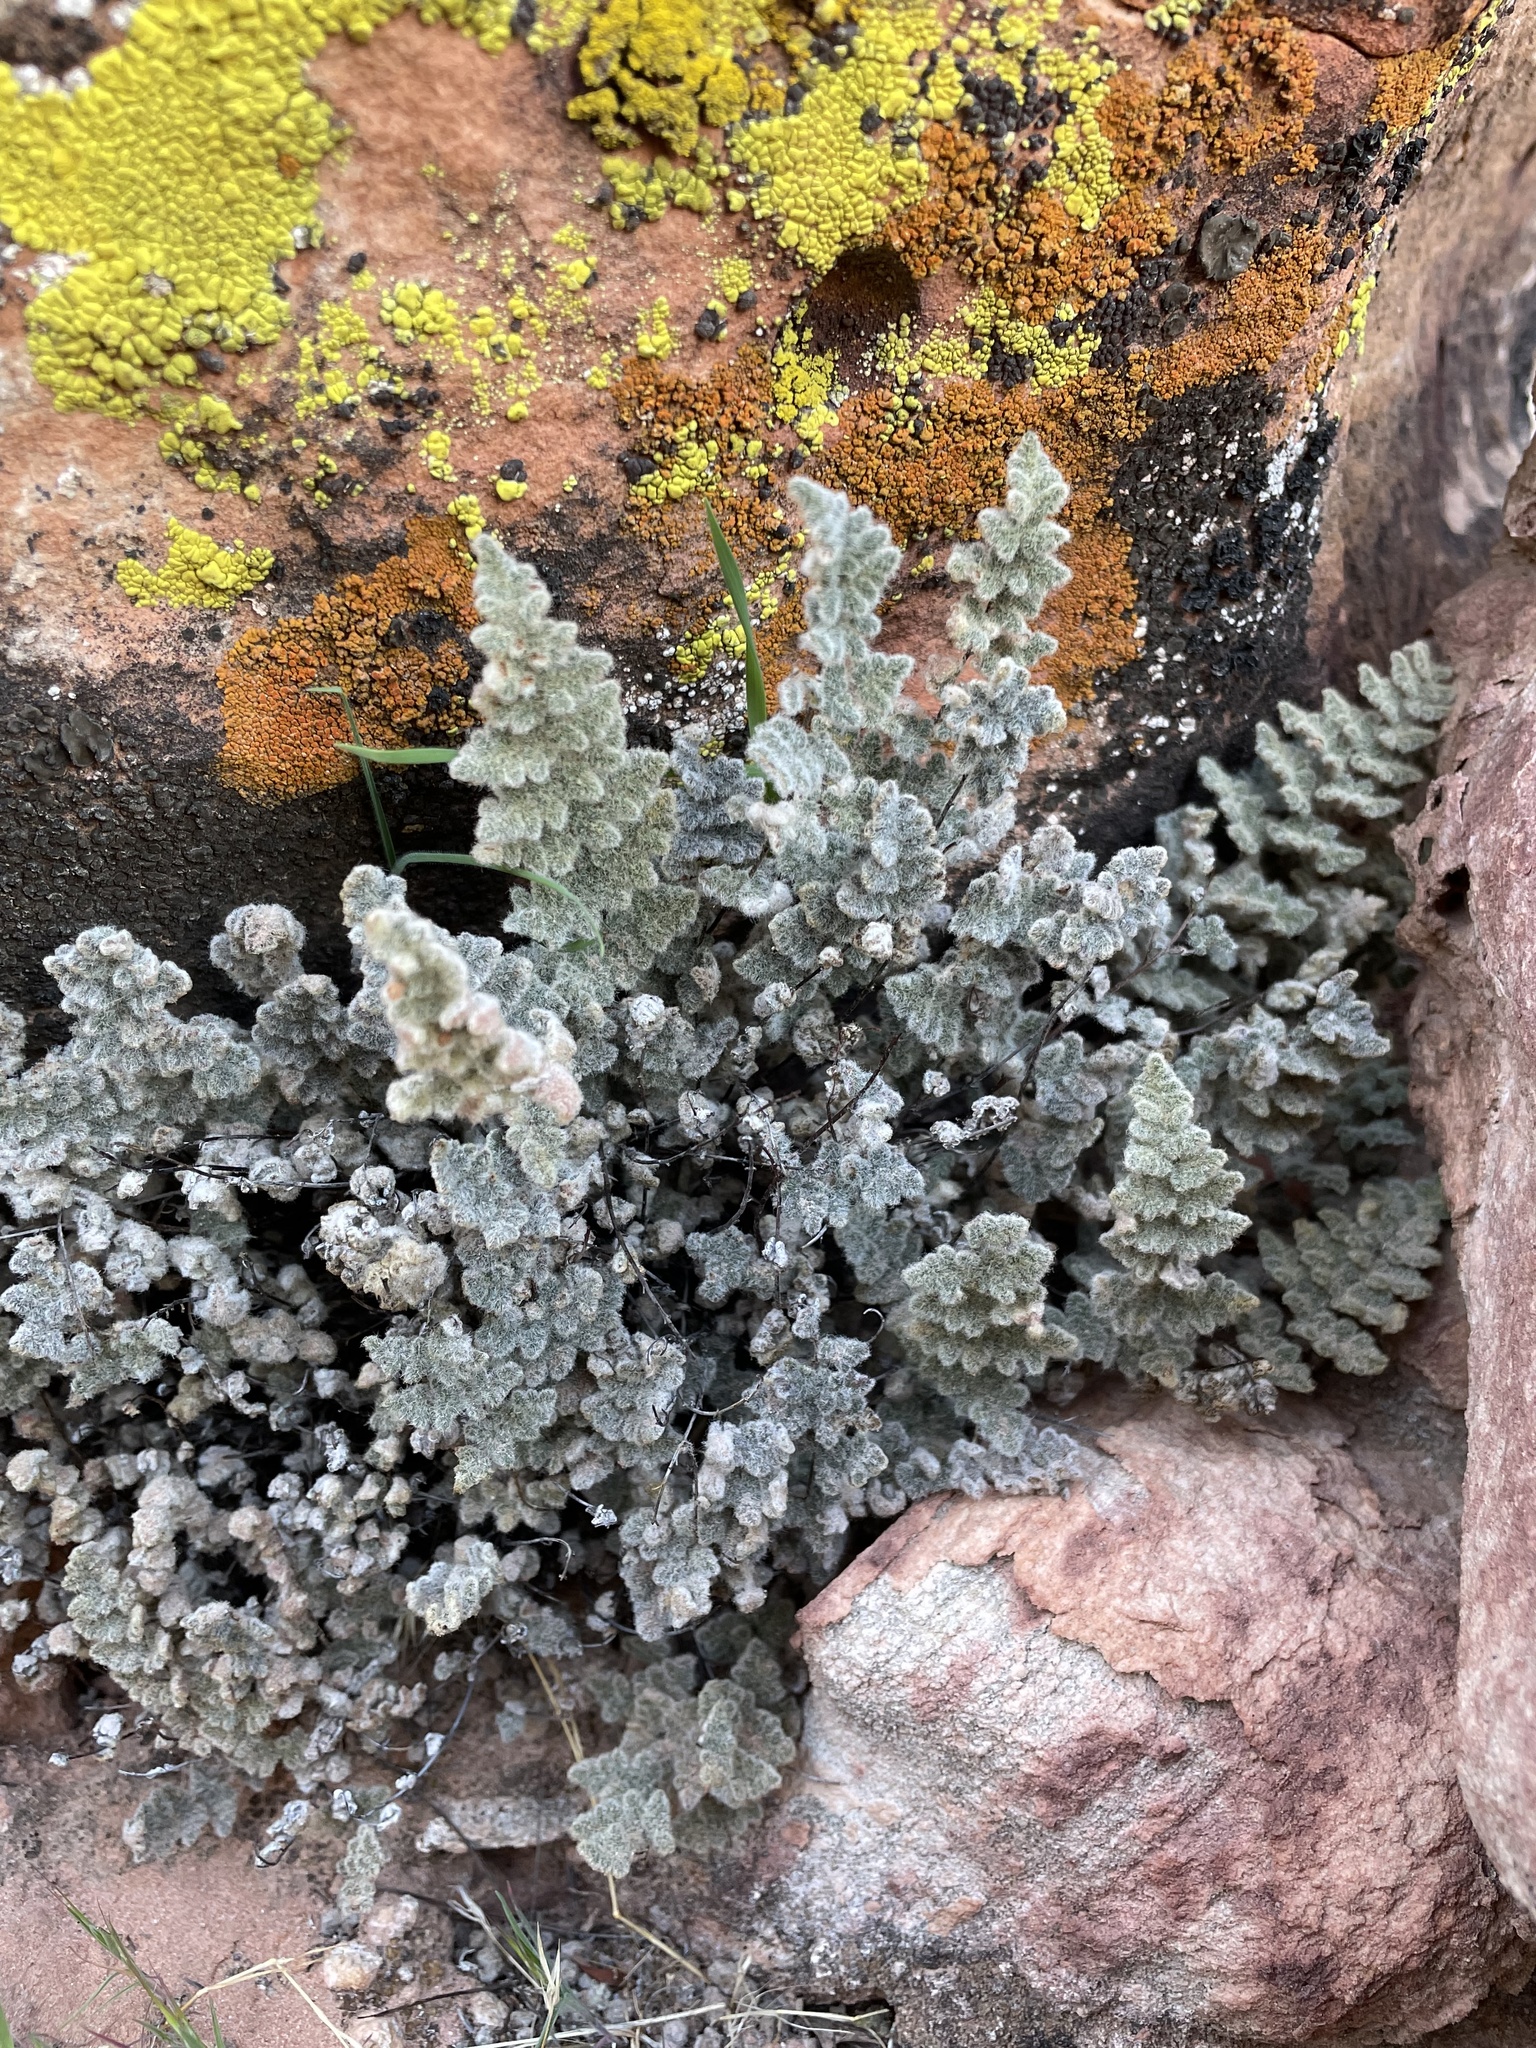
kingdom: Plantae
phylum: Tracheophyta
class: Polypodiopsida
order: Polypodiales
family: Pteridaceae
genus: Myriopteris
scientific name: Myriopteris parryi
